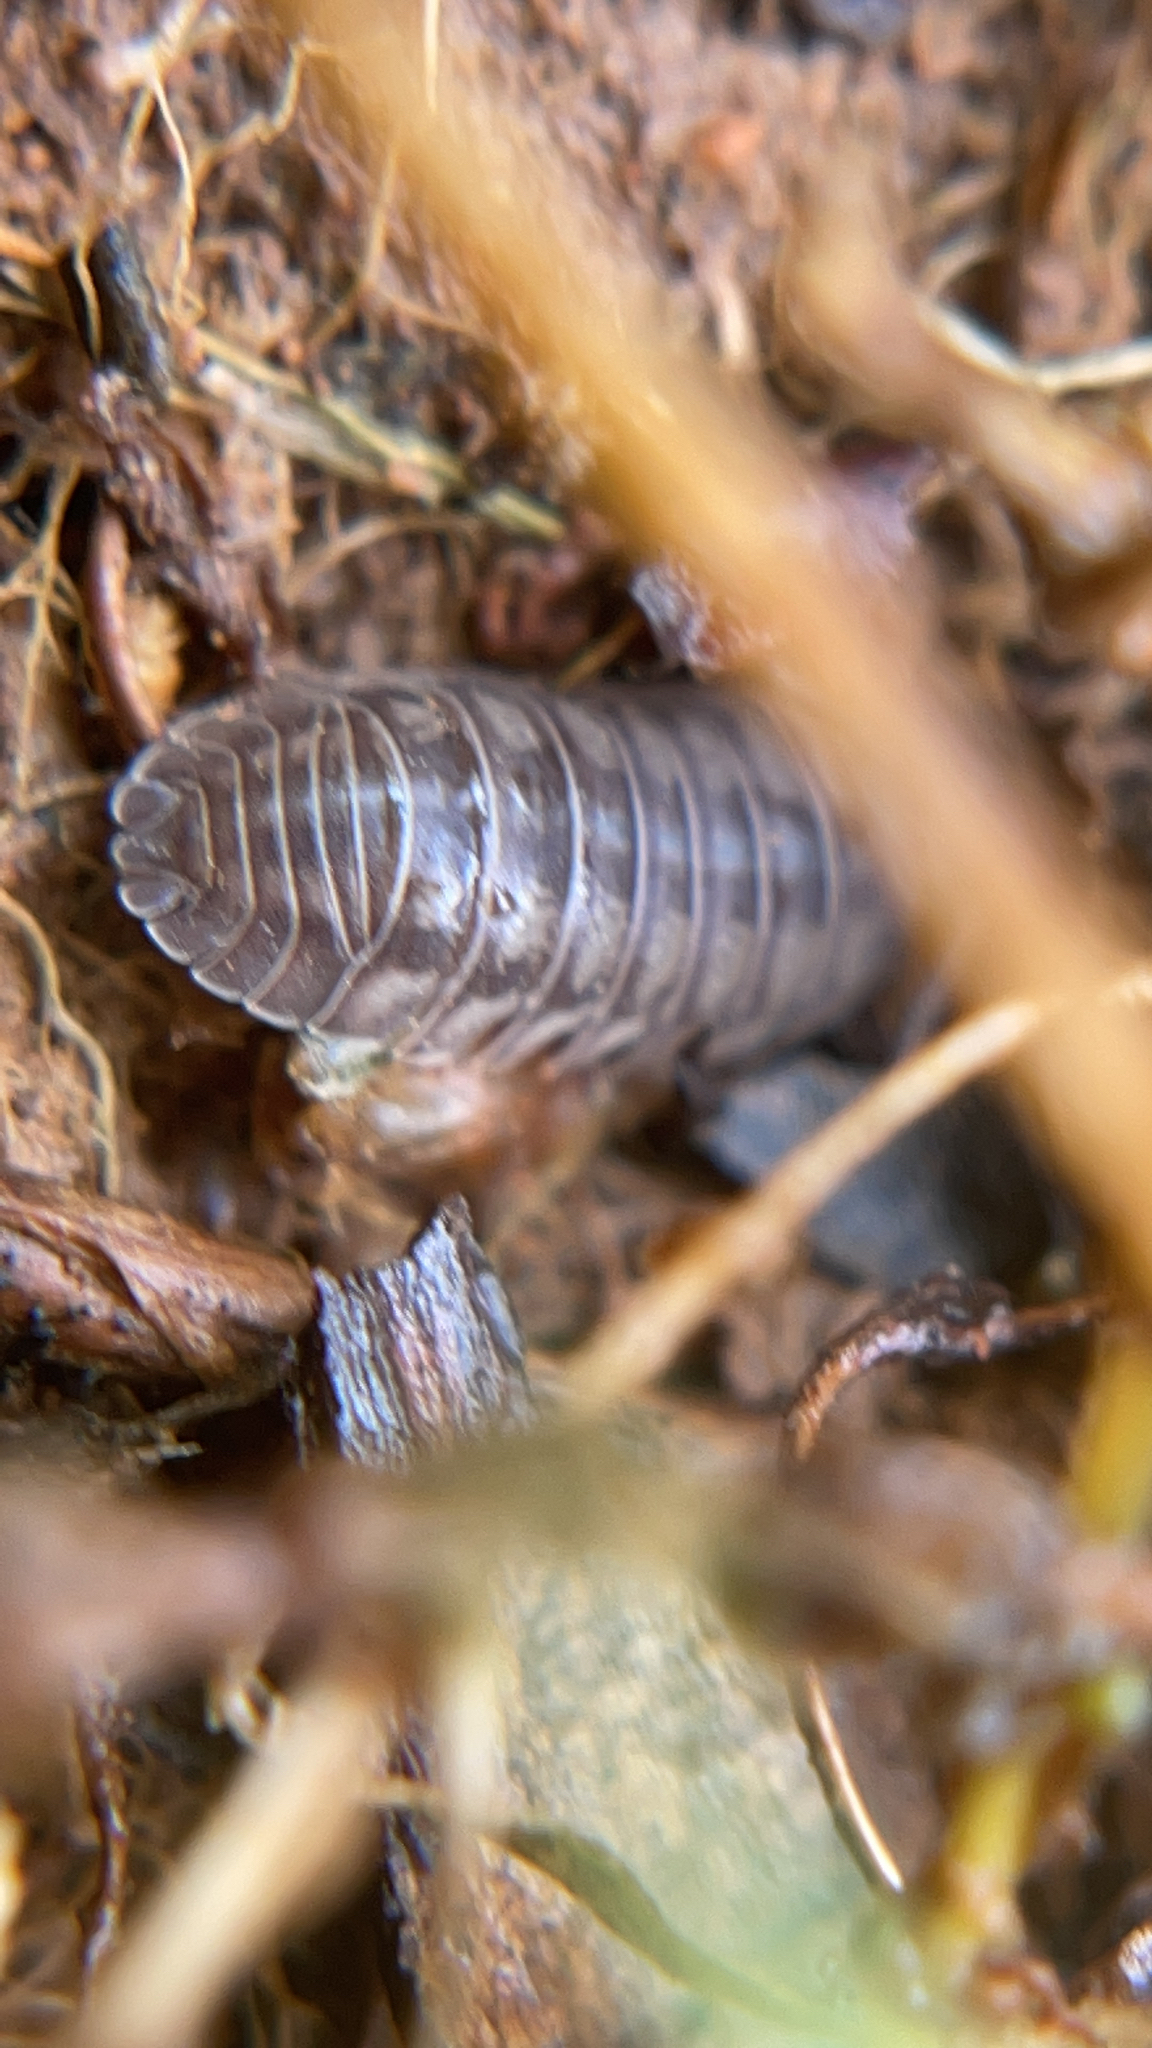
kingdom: Animalia
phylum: Arthropoda
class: Malacostraca
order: Isopoda
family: Armadillidiidae
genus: Armadillidium
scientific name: Armadillidium nasatum
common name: Isopod
